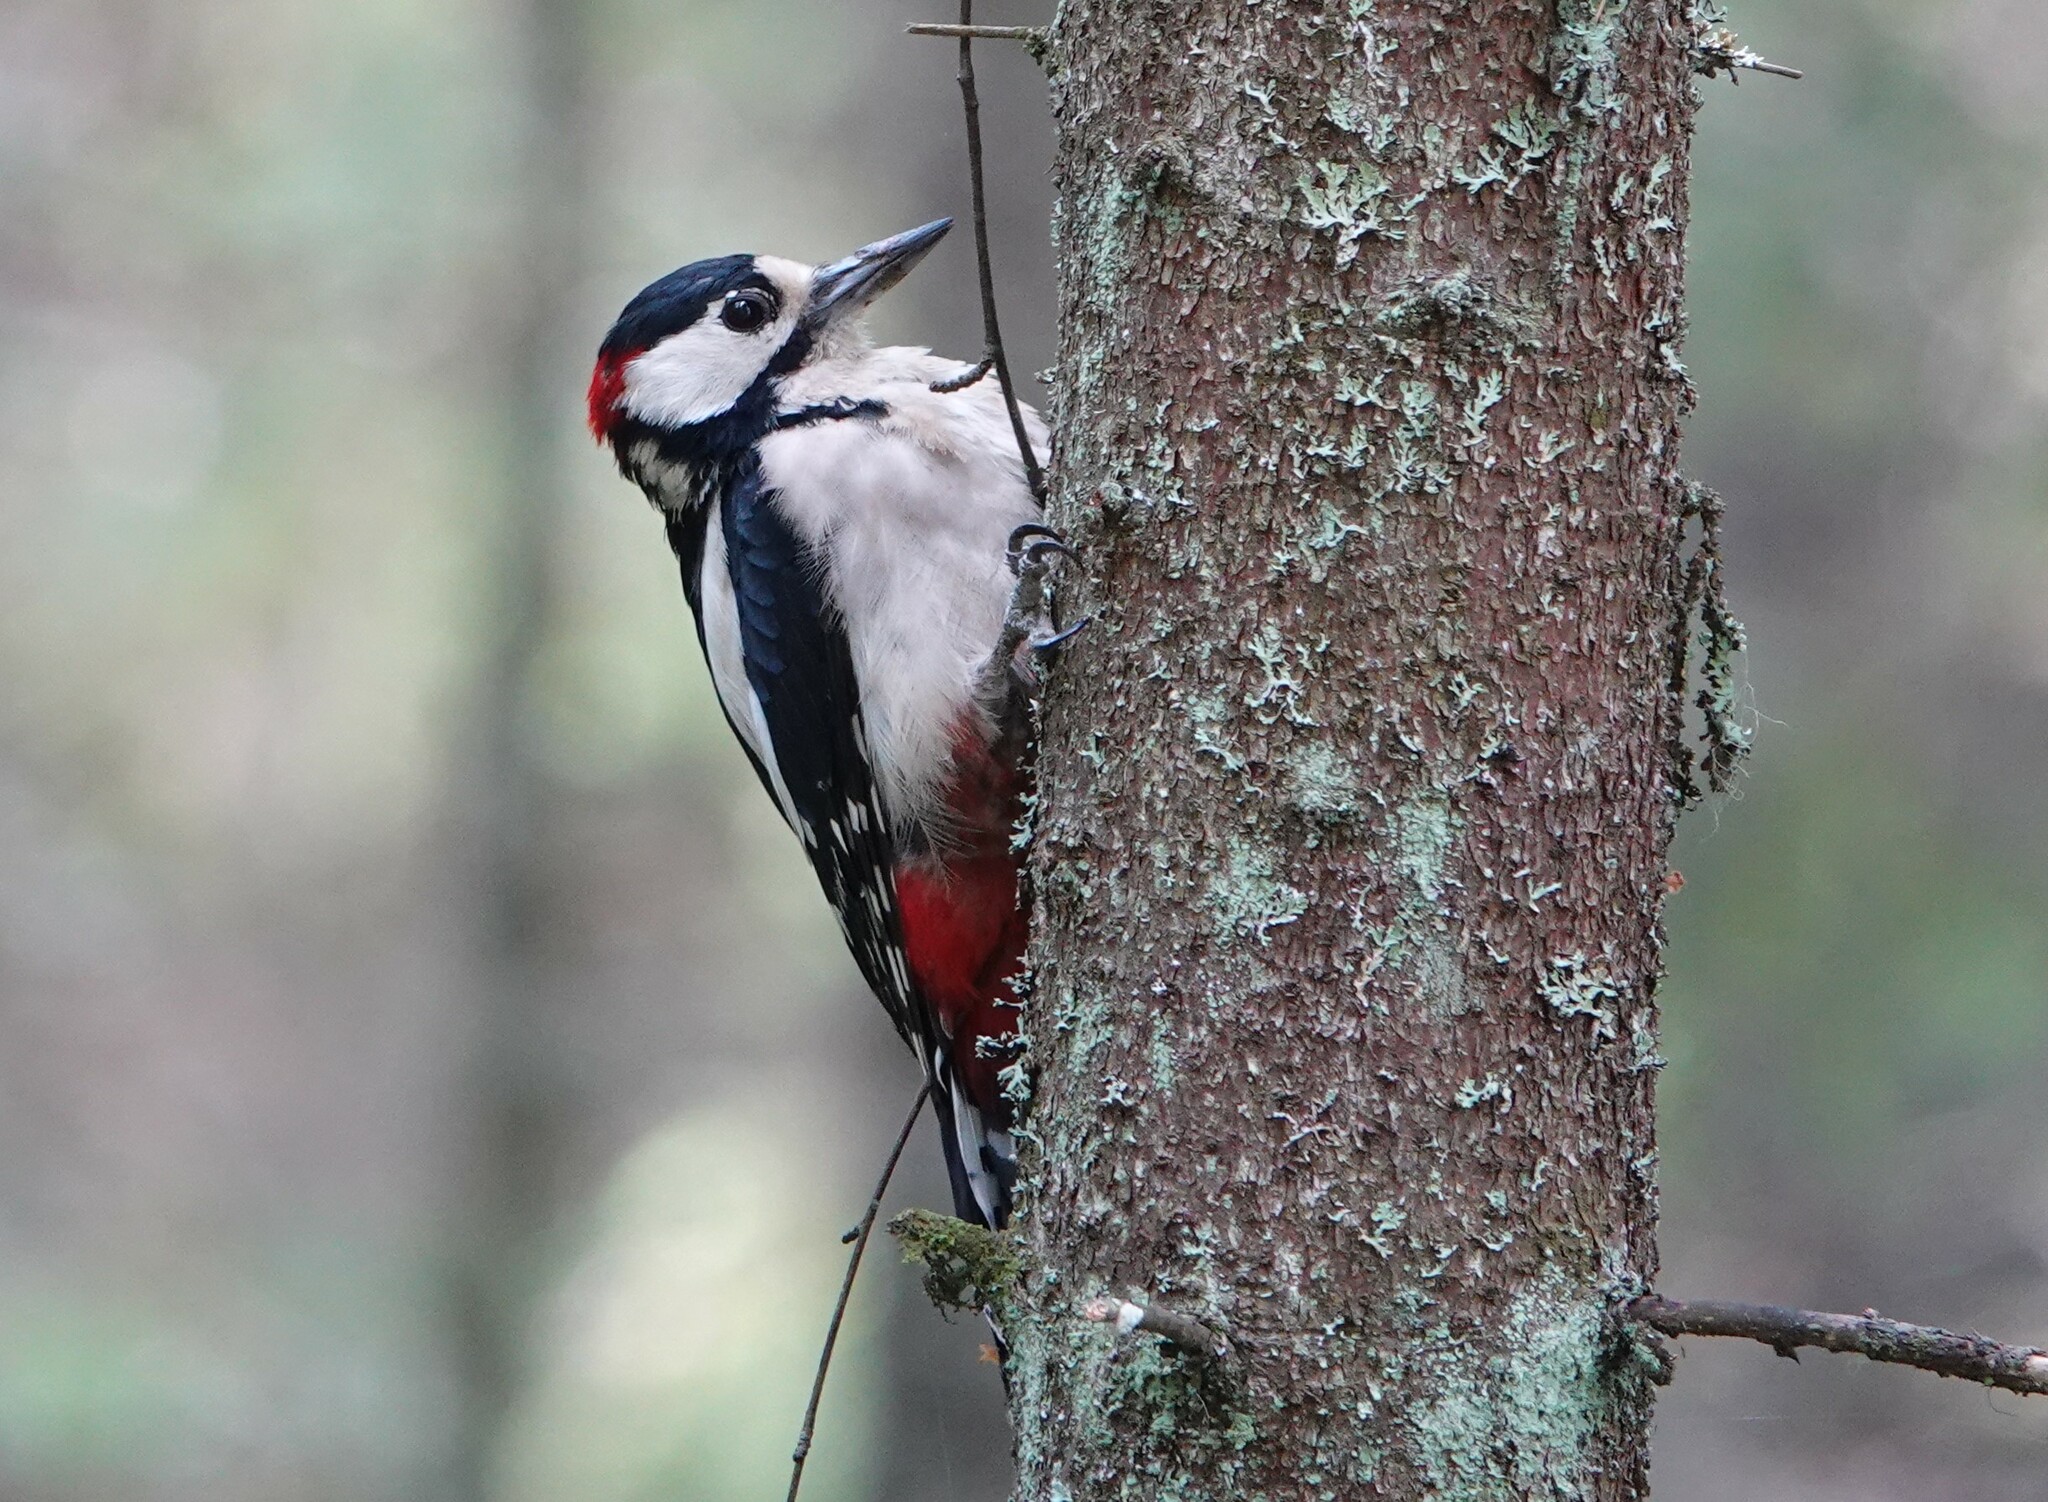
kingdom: Animalia
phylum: Chordata
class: Aves
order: Piciformes
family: Picidae
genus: Dendrocopos
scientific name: Dendrocopos major
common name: Great spotted woodpecker
